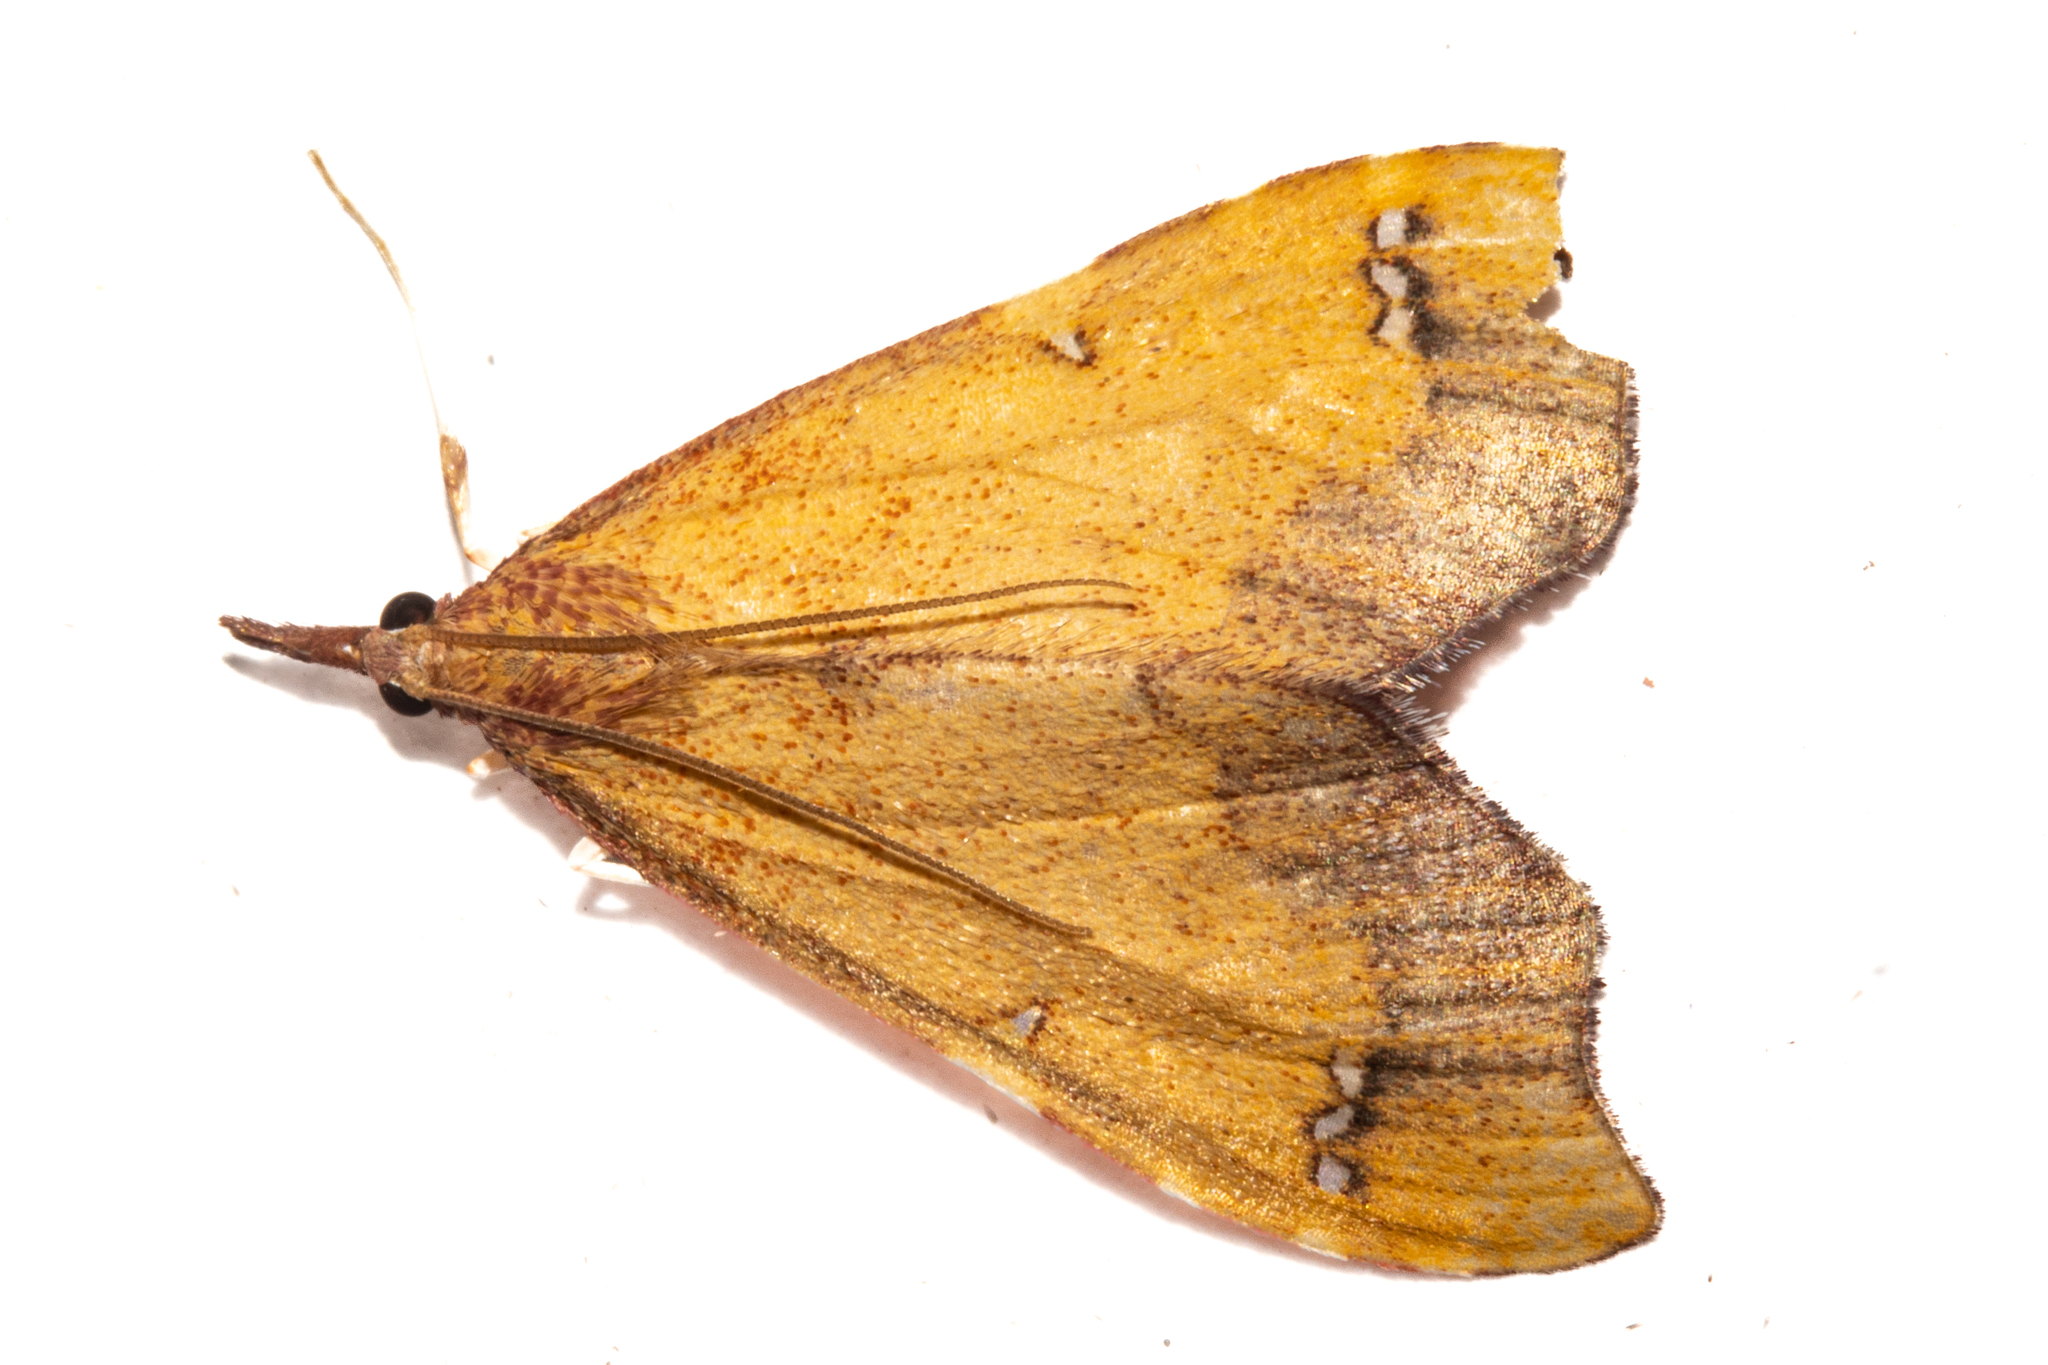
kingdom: Animalia
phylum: Arthropoda
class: Insecta
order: Lepidoptera
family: Crambidae
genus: Deana
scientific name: Deana hybreasalis
